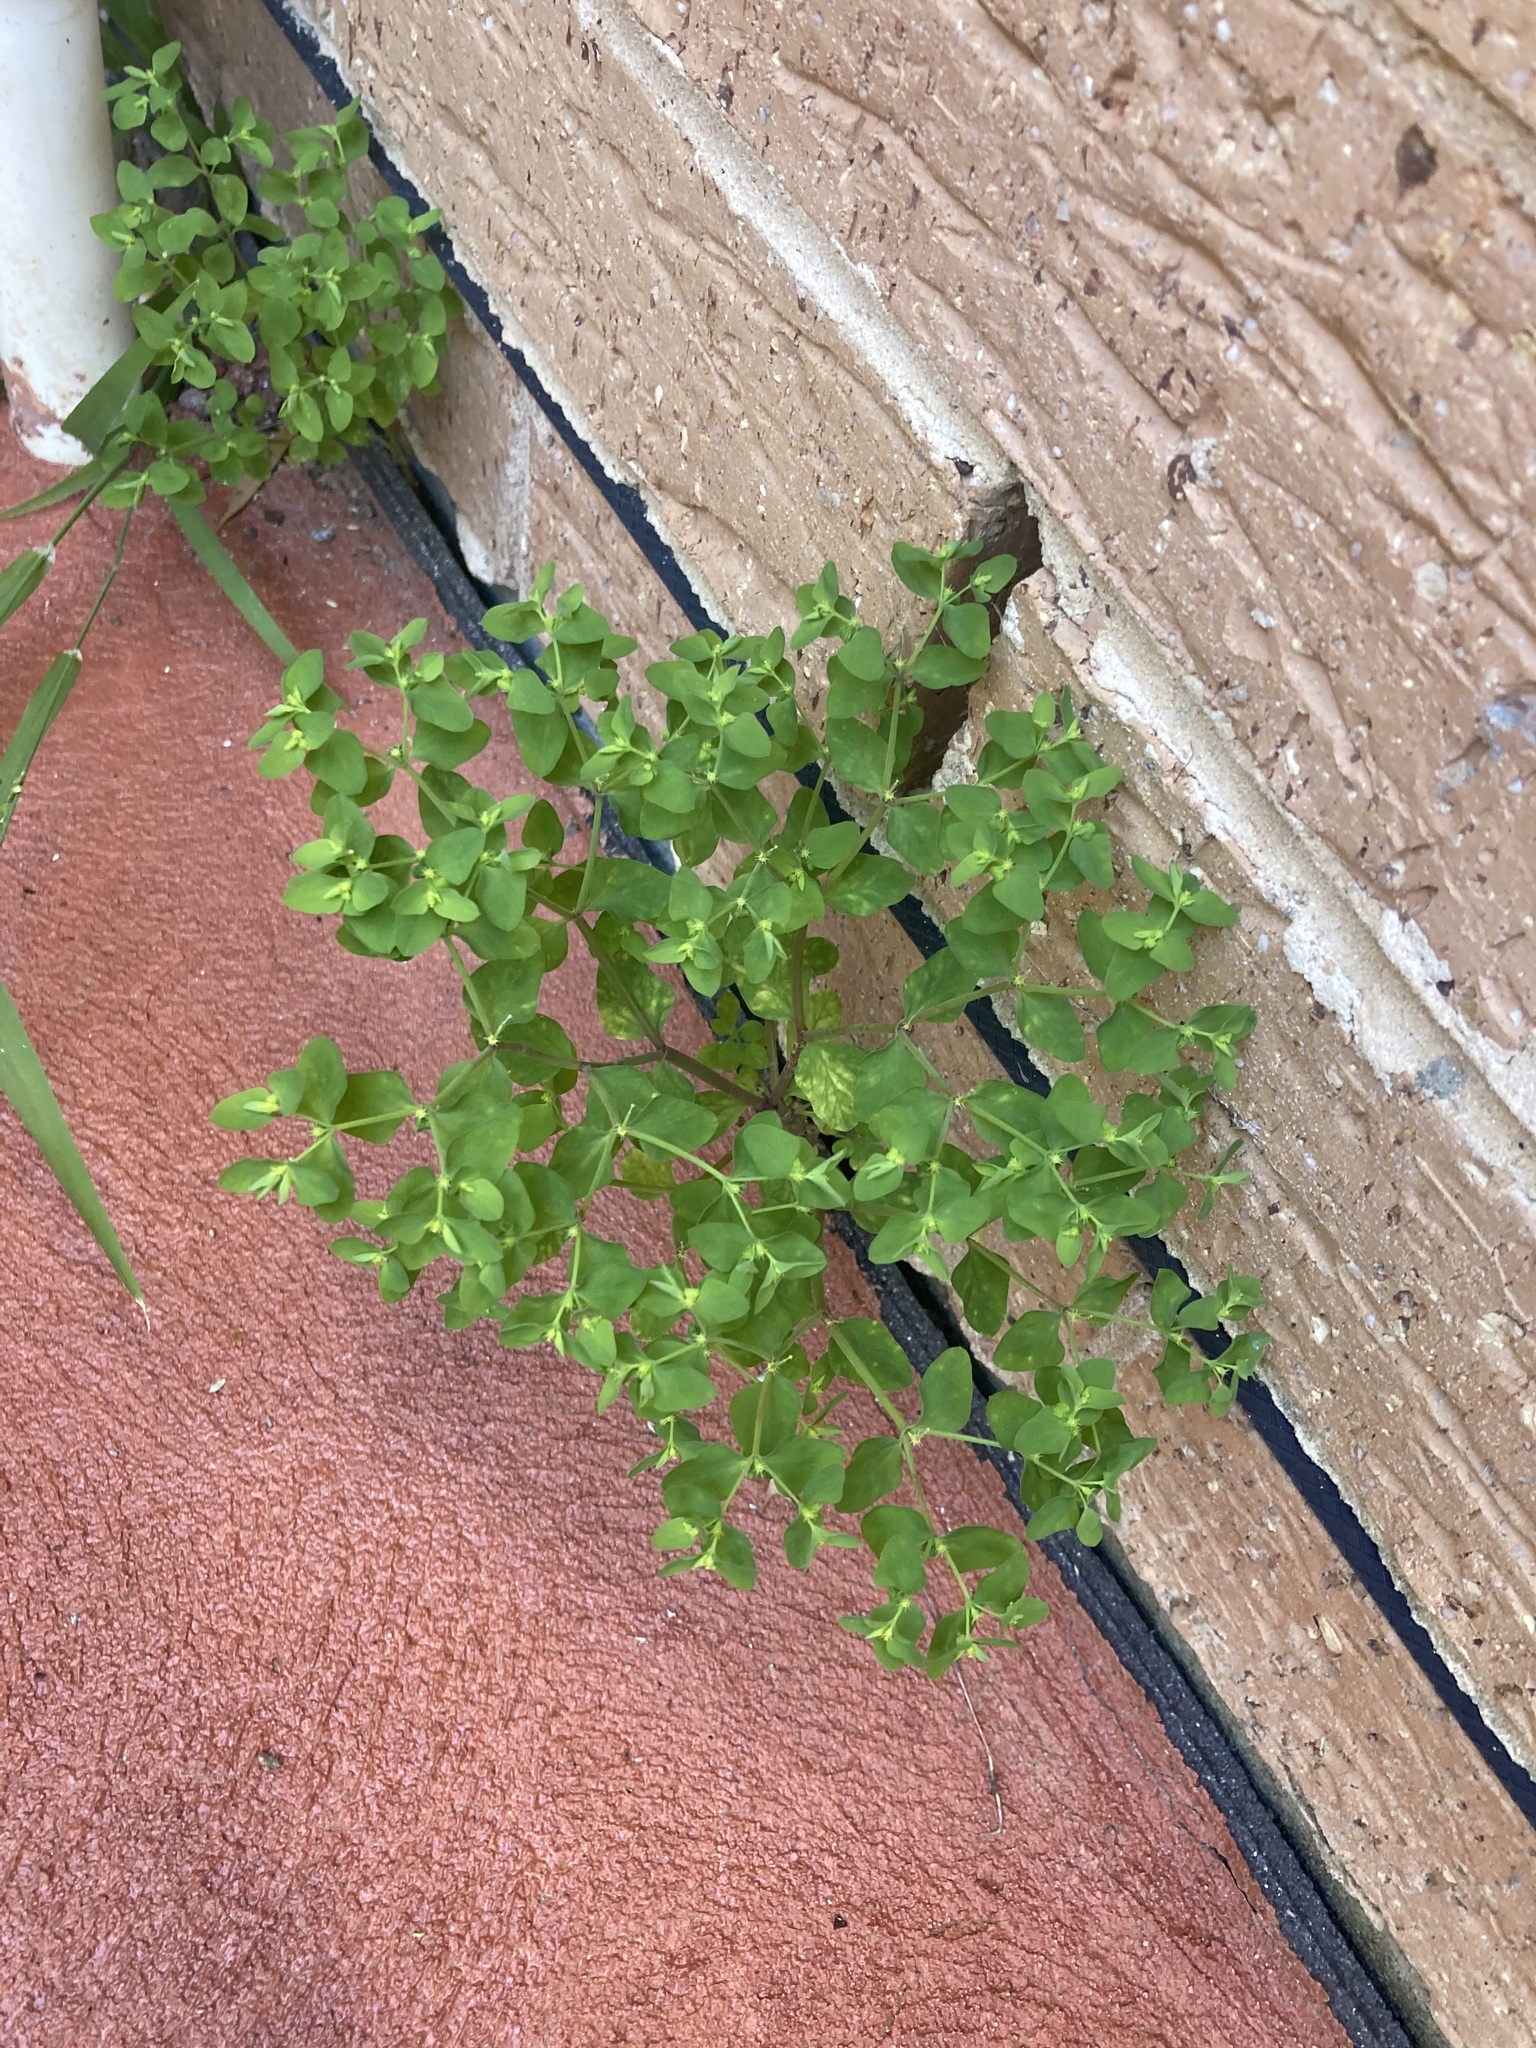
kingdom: Plantae
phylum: Tracheophyta
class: Magnoliopsida
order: Malpighiales
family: Euphorbiaceae
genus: Euphorbia
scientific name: Euphorbia peplus
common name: Petty spurge
